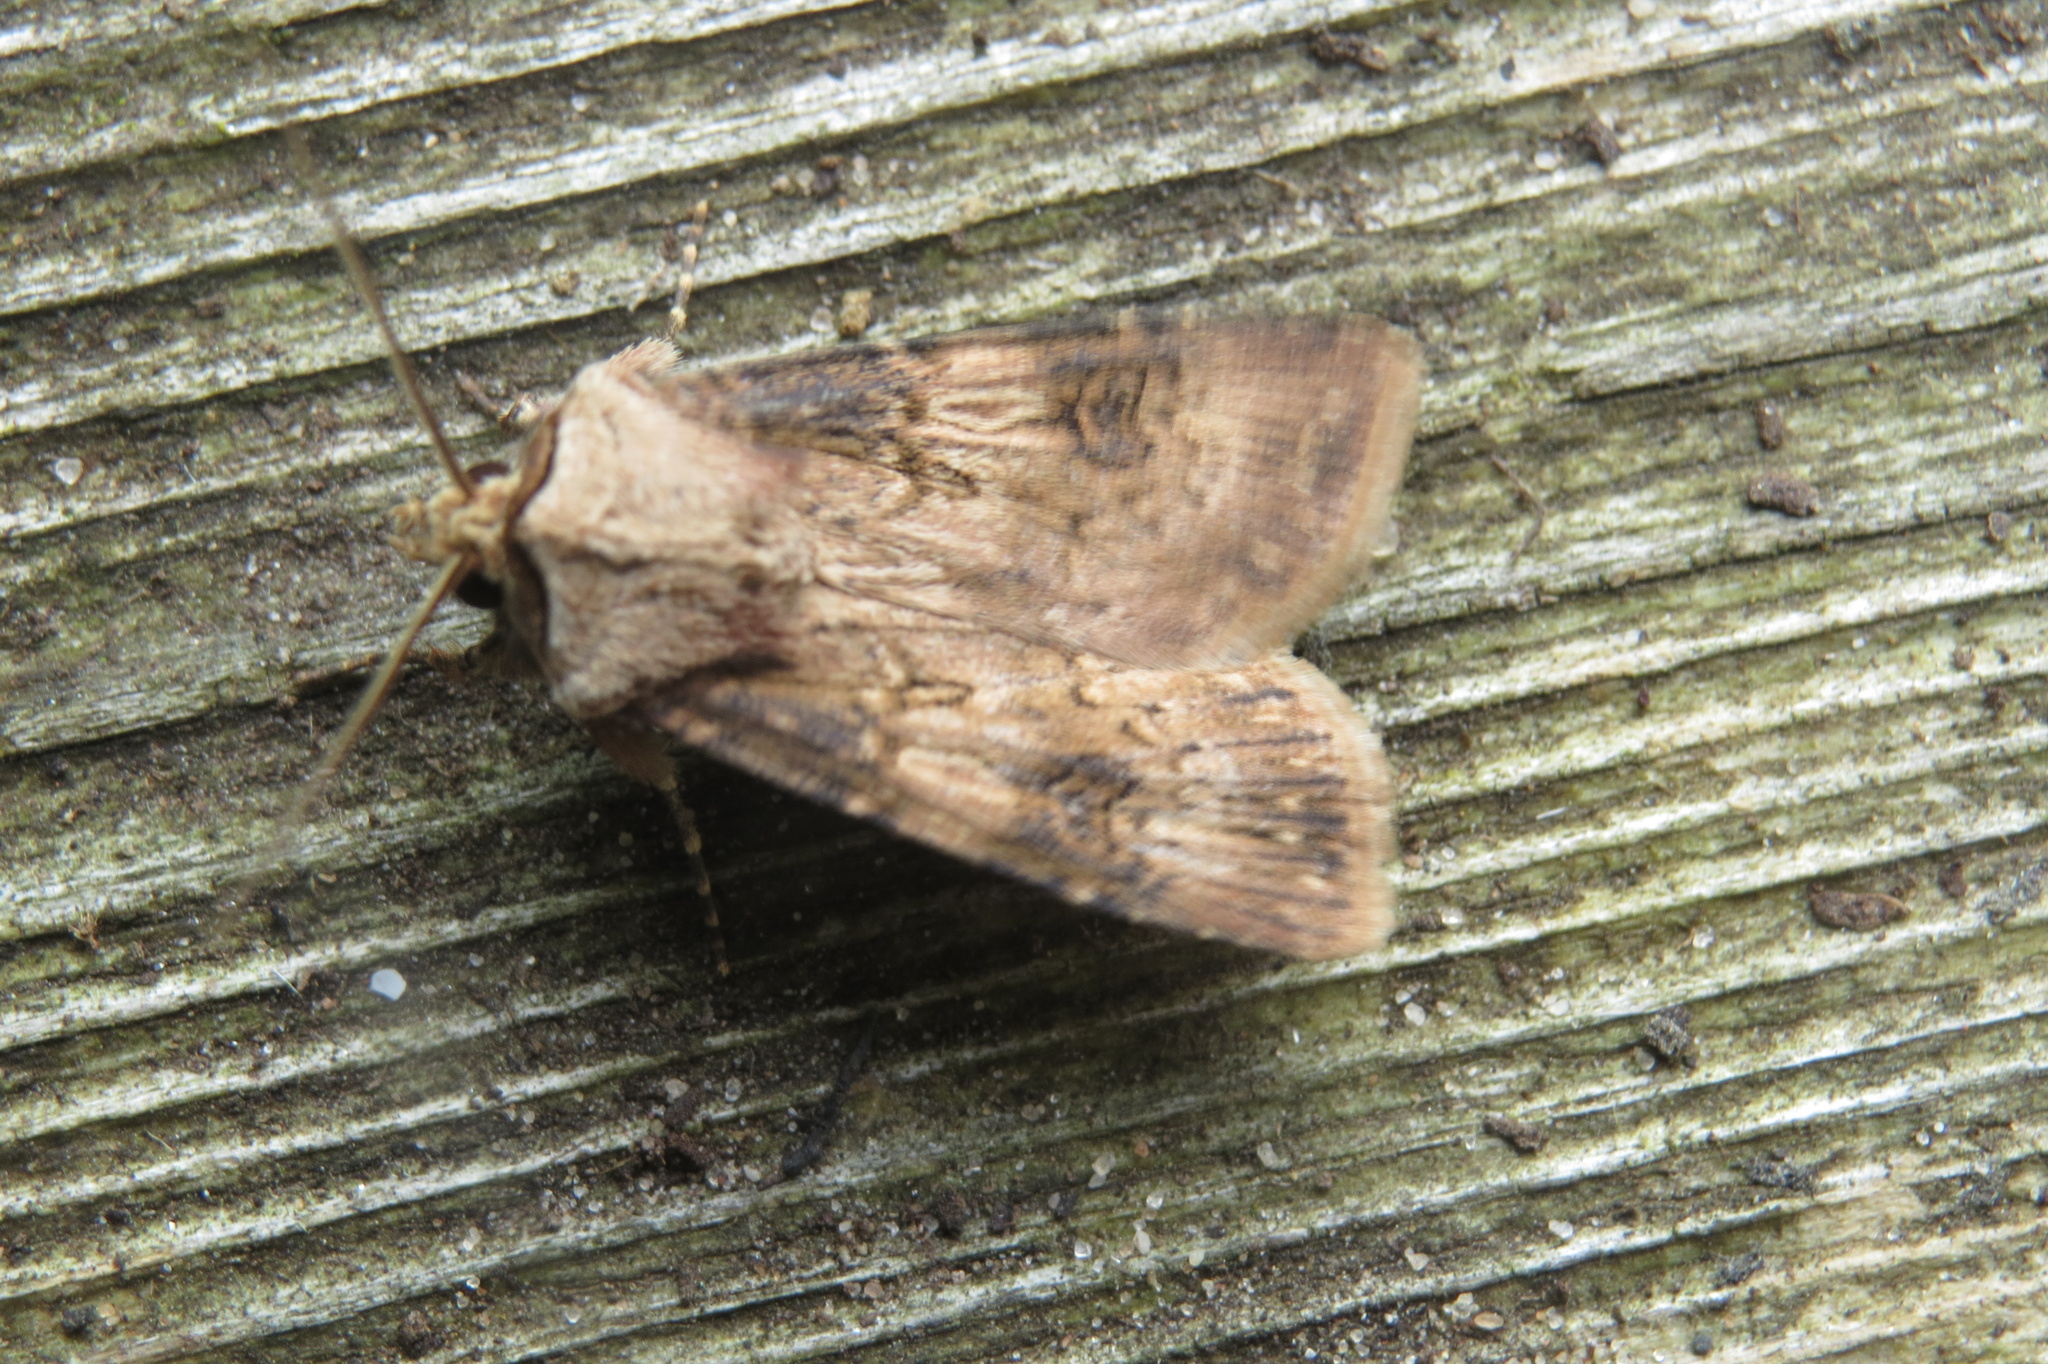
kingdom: Animalia
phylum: Arthropoda
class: Insecta
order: Lepidoptera
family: Noctuidae
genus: Agrotis
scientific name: Agrotis puta
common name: Shuttle-shaped dart
